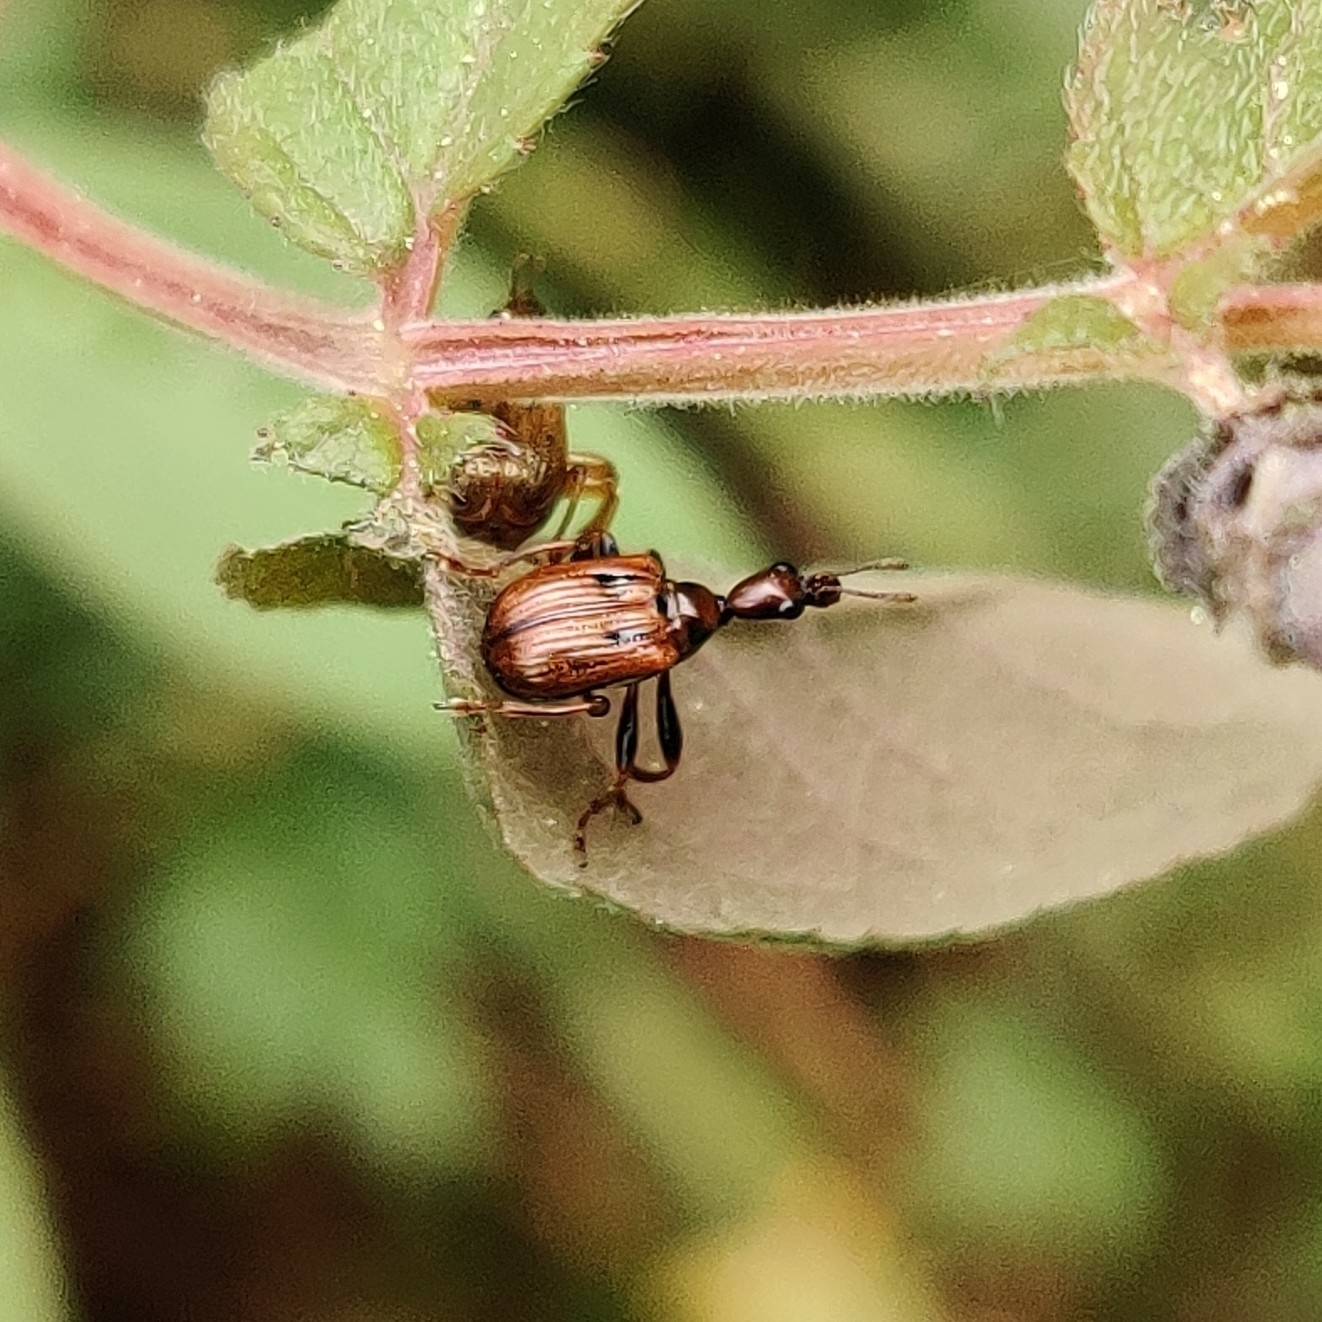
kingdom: Animalia
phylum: Arthropoda
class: Insecta
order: Coleoptera
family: Attelabidae
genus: Compsapoderus
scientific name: Compsapoderus bistriolatus
